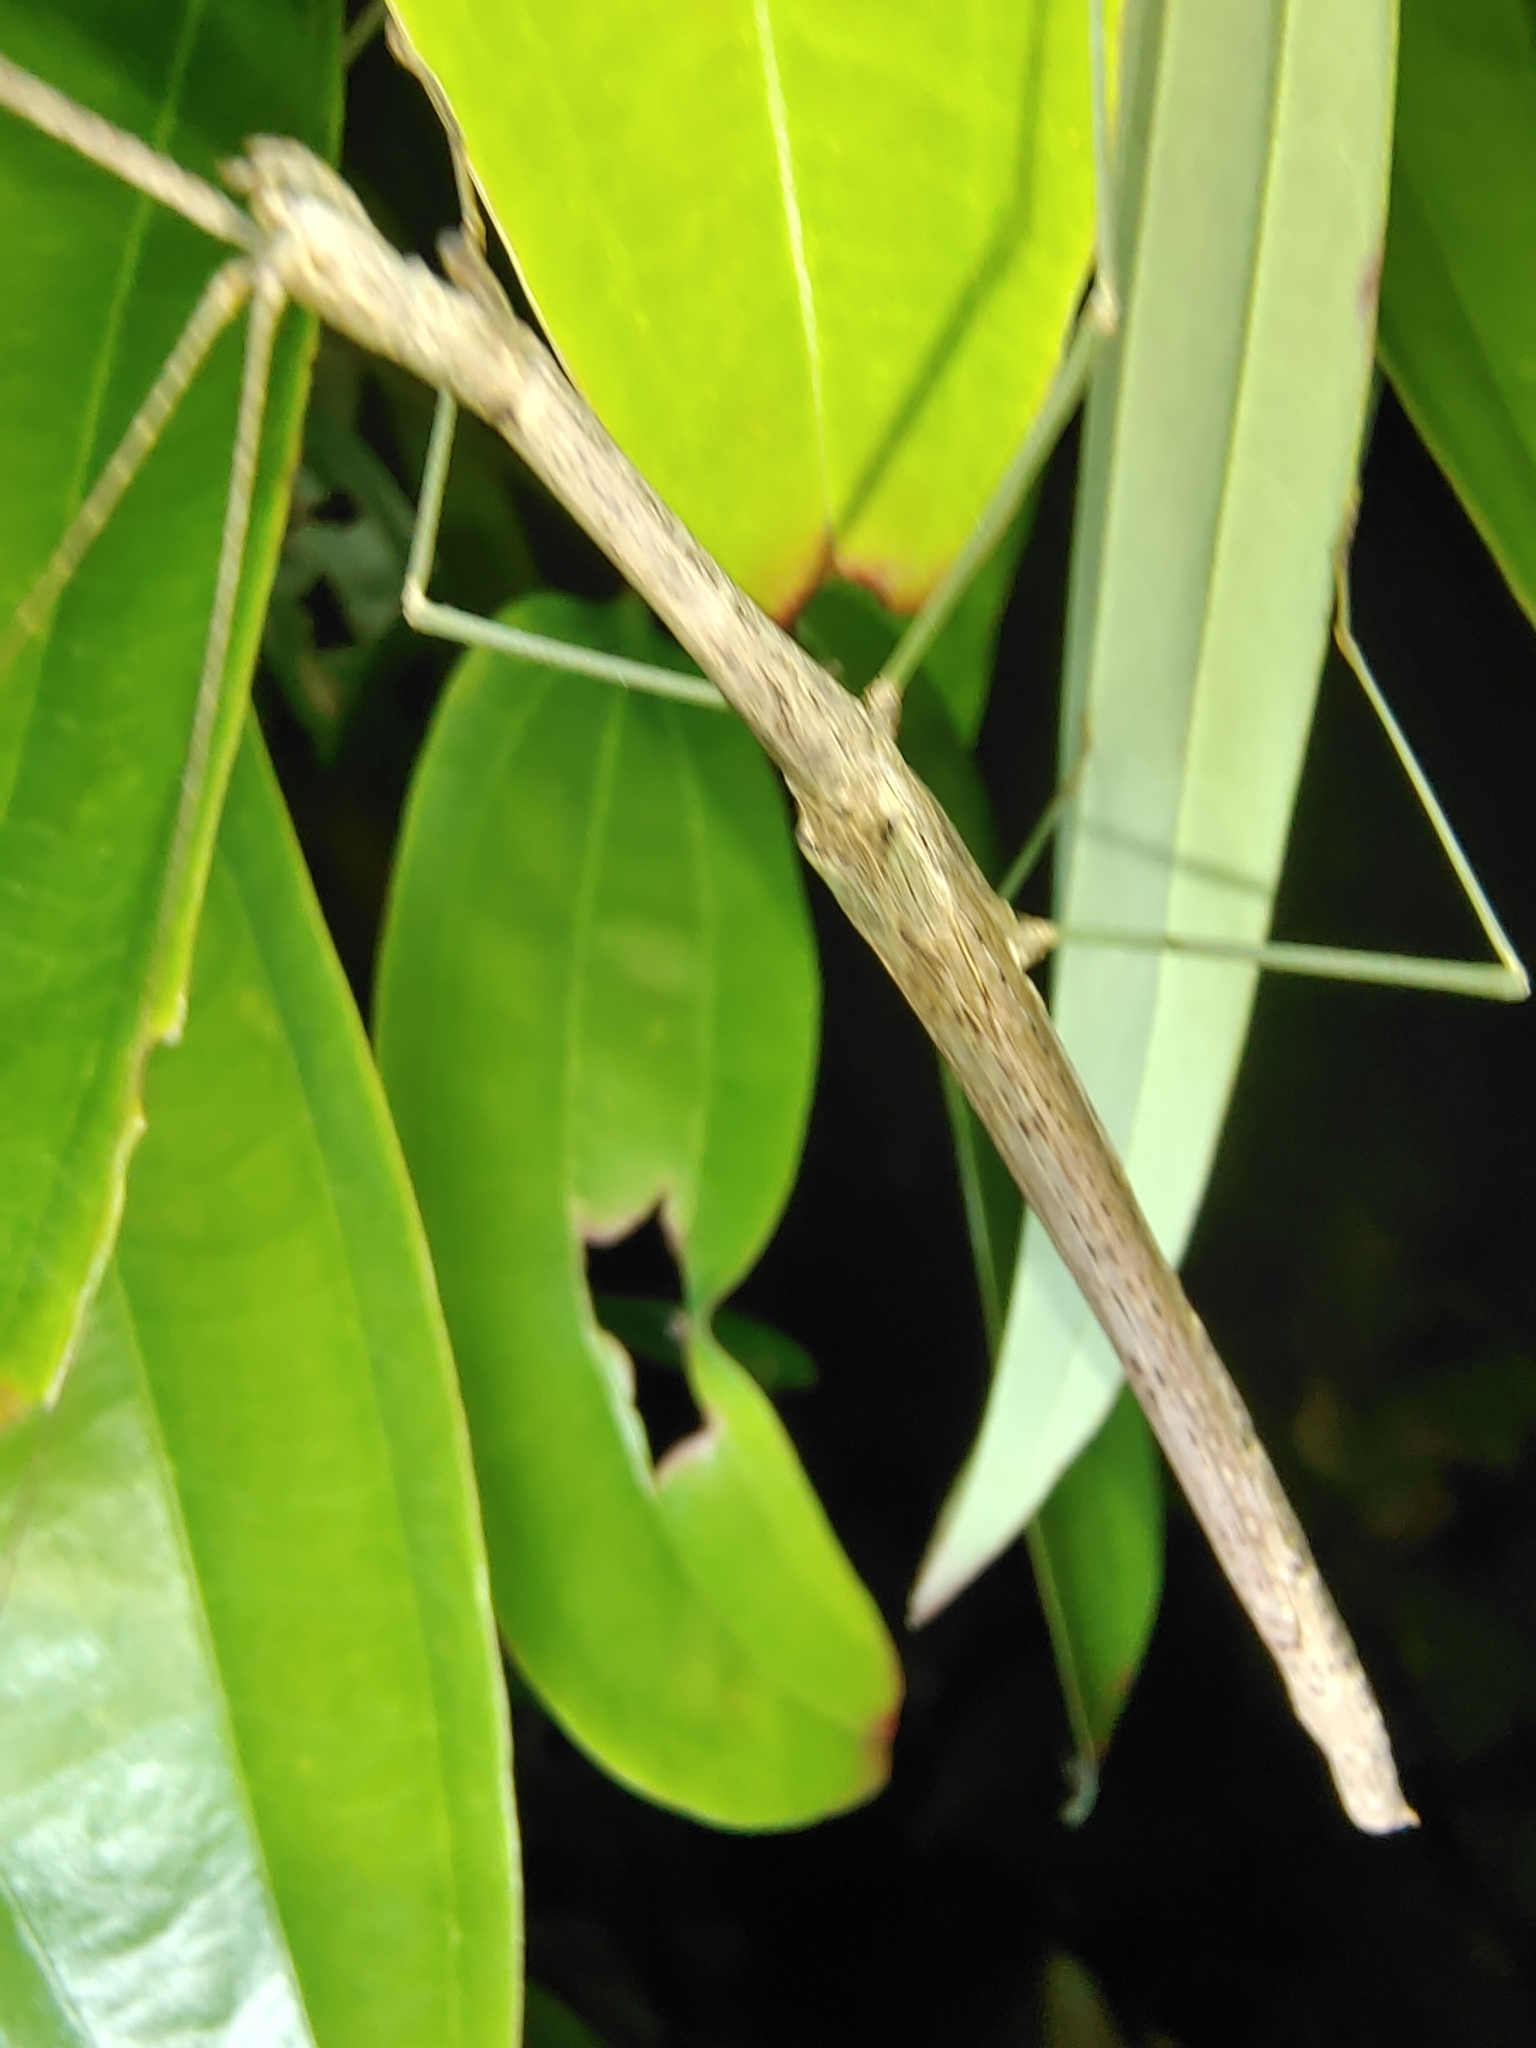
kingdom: Animalia
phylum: Arthropoda
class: Insecta
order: Phasmida
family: Lonchodidae
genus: Singaporoidea
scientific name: Singaporoidea meneptolemus
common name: Green-legged sipyloidea
